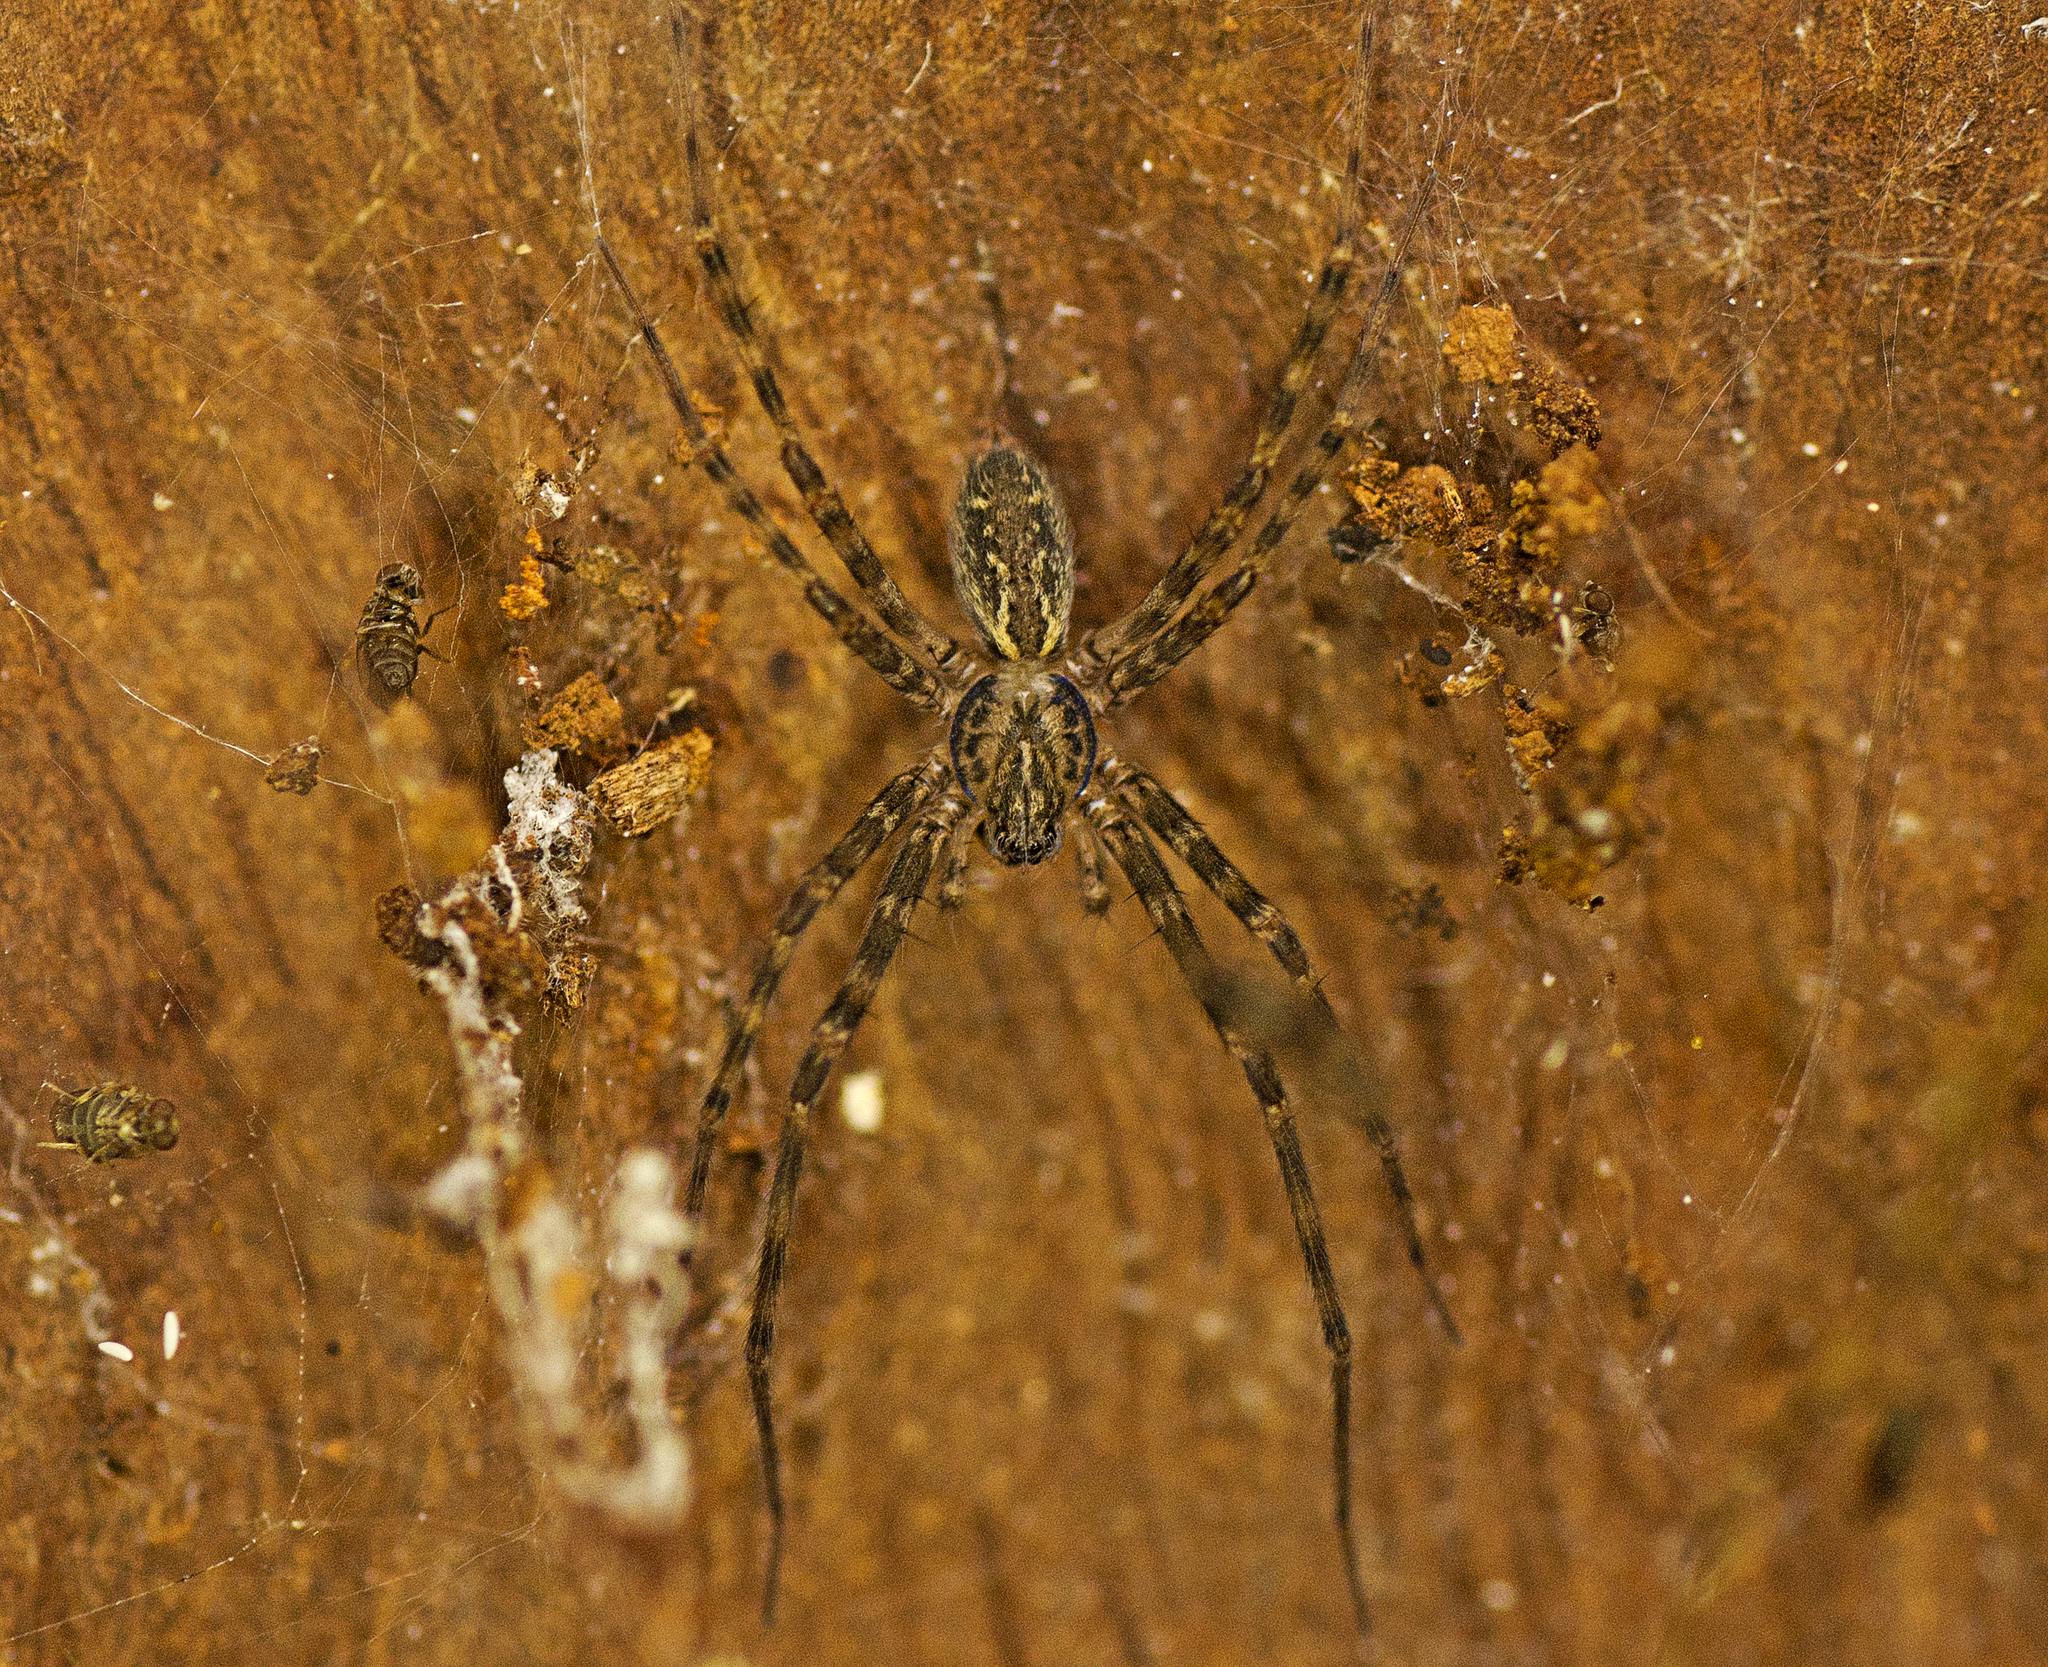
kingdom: Animalia
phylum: Arthropoda
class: Arachnida
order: Araneae
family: Stiphidiidae
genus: Stiphidion
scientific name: Stiphidion facetum
